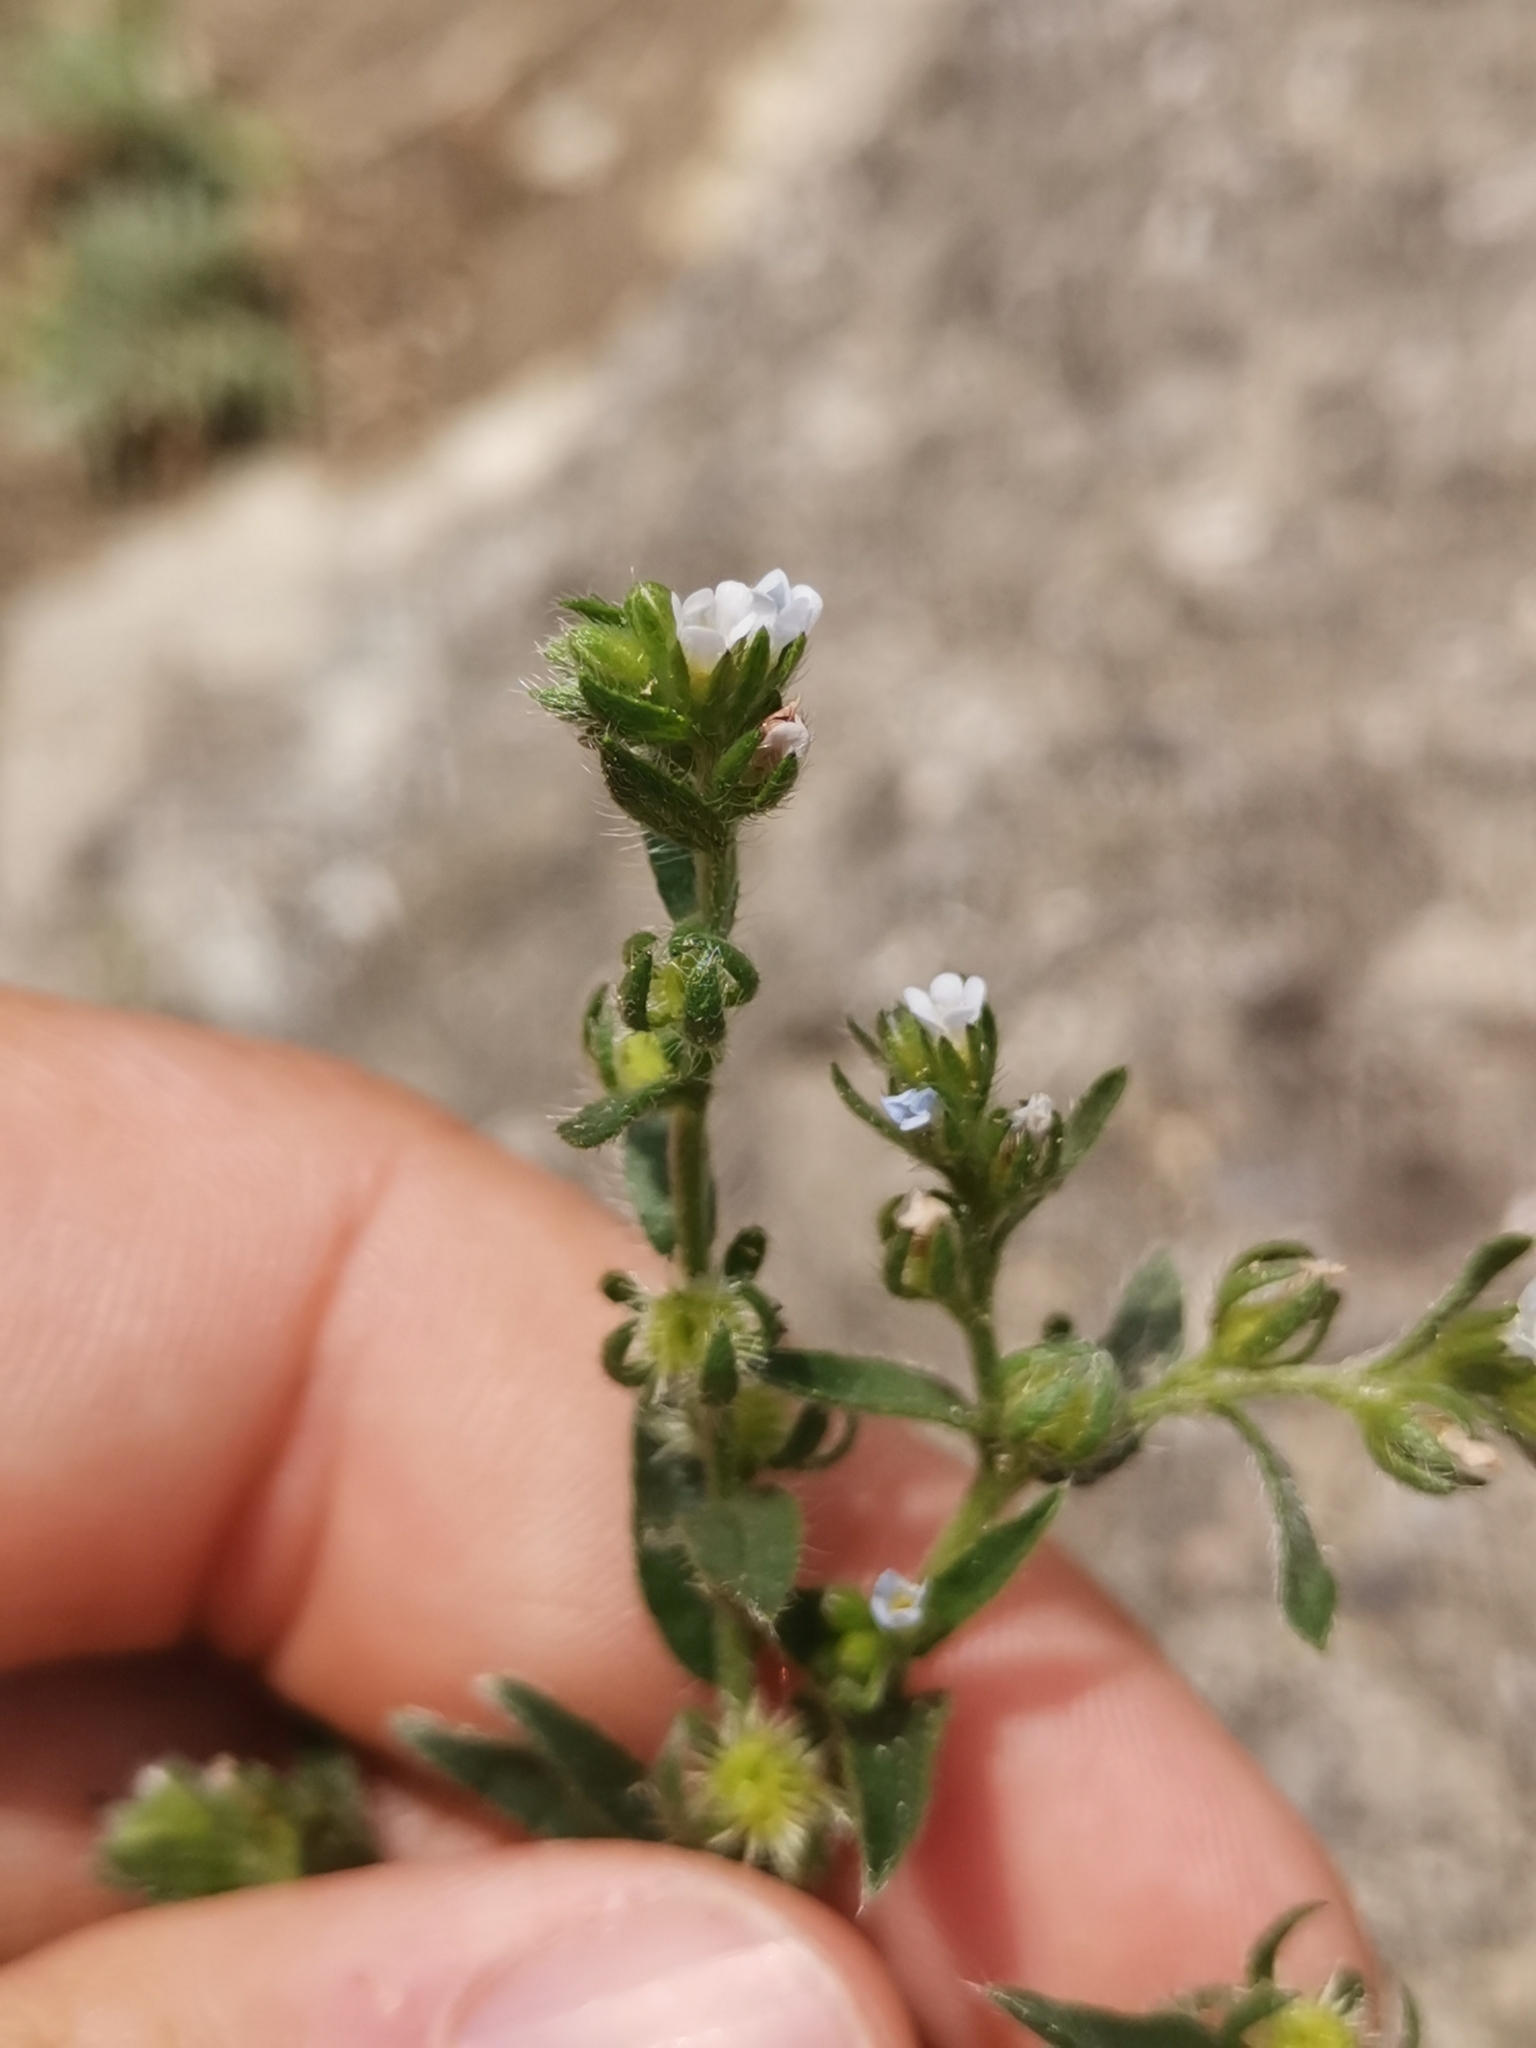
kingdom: Plantae
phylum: Tracheophyta
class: Magnoliopsida
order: Boraginales
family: Boraginaceae
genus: Lappula
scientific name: Lappula squarrosa
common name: European stickseed
